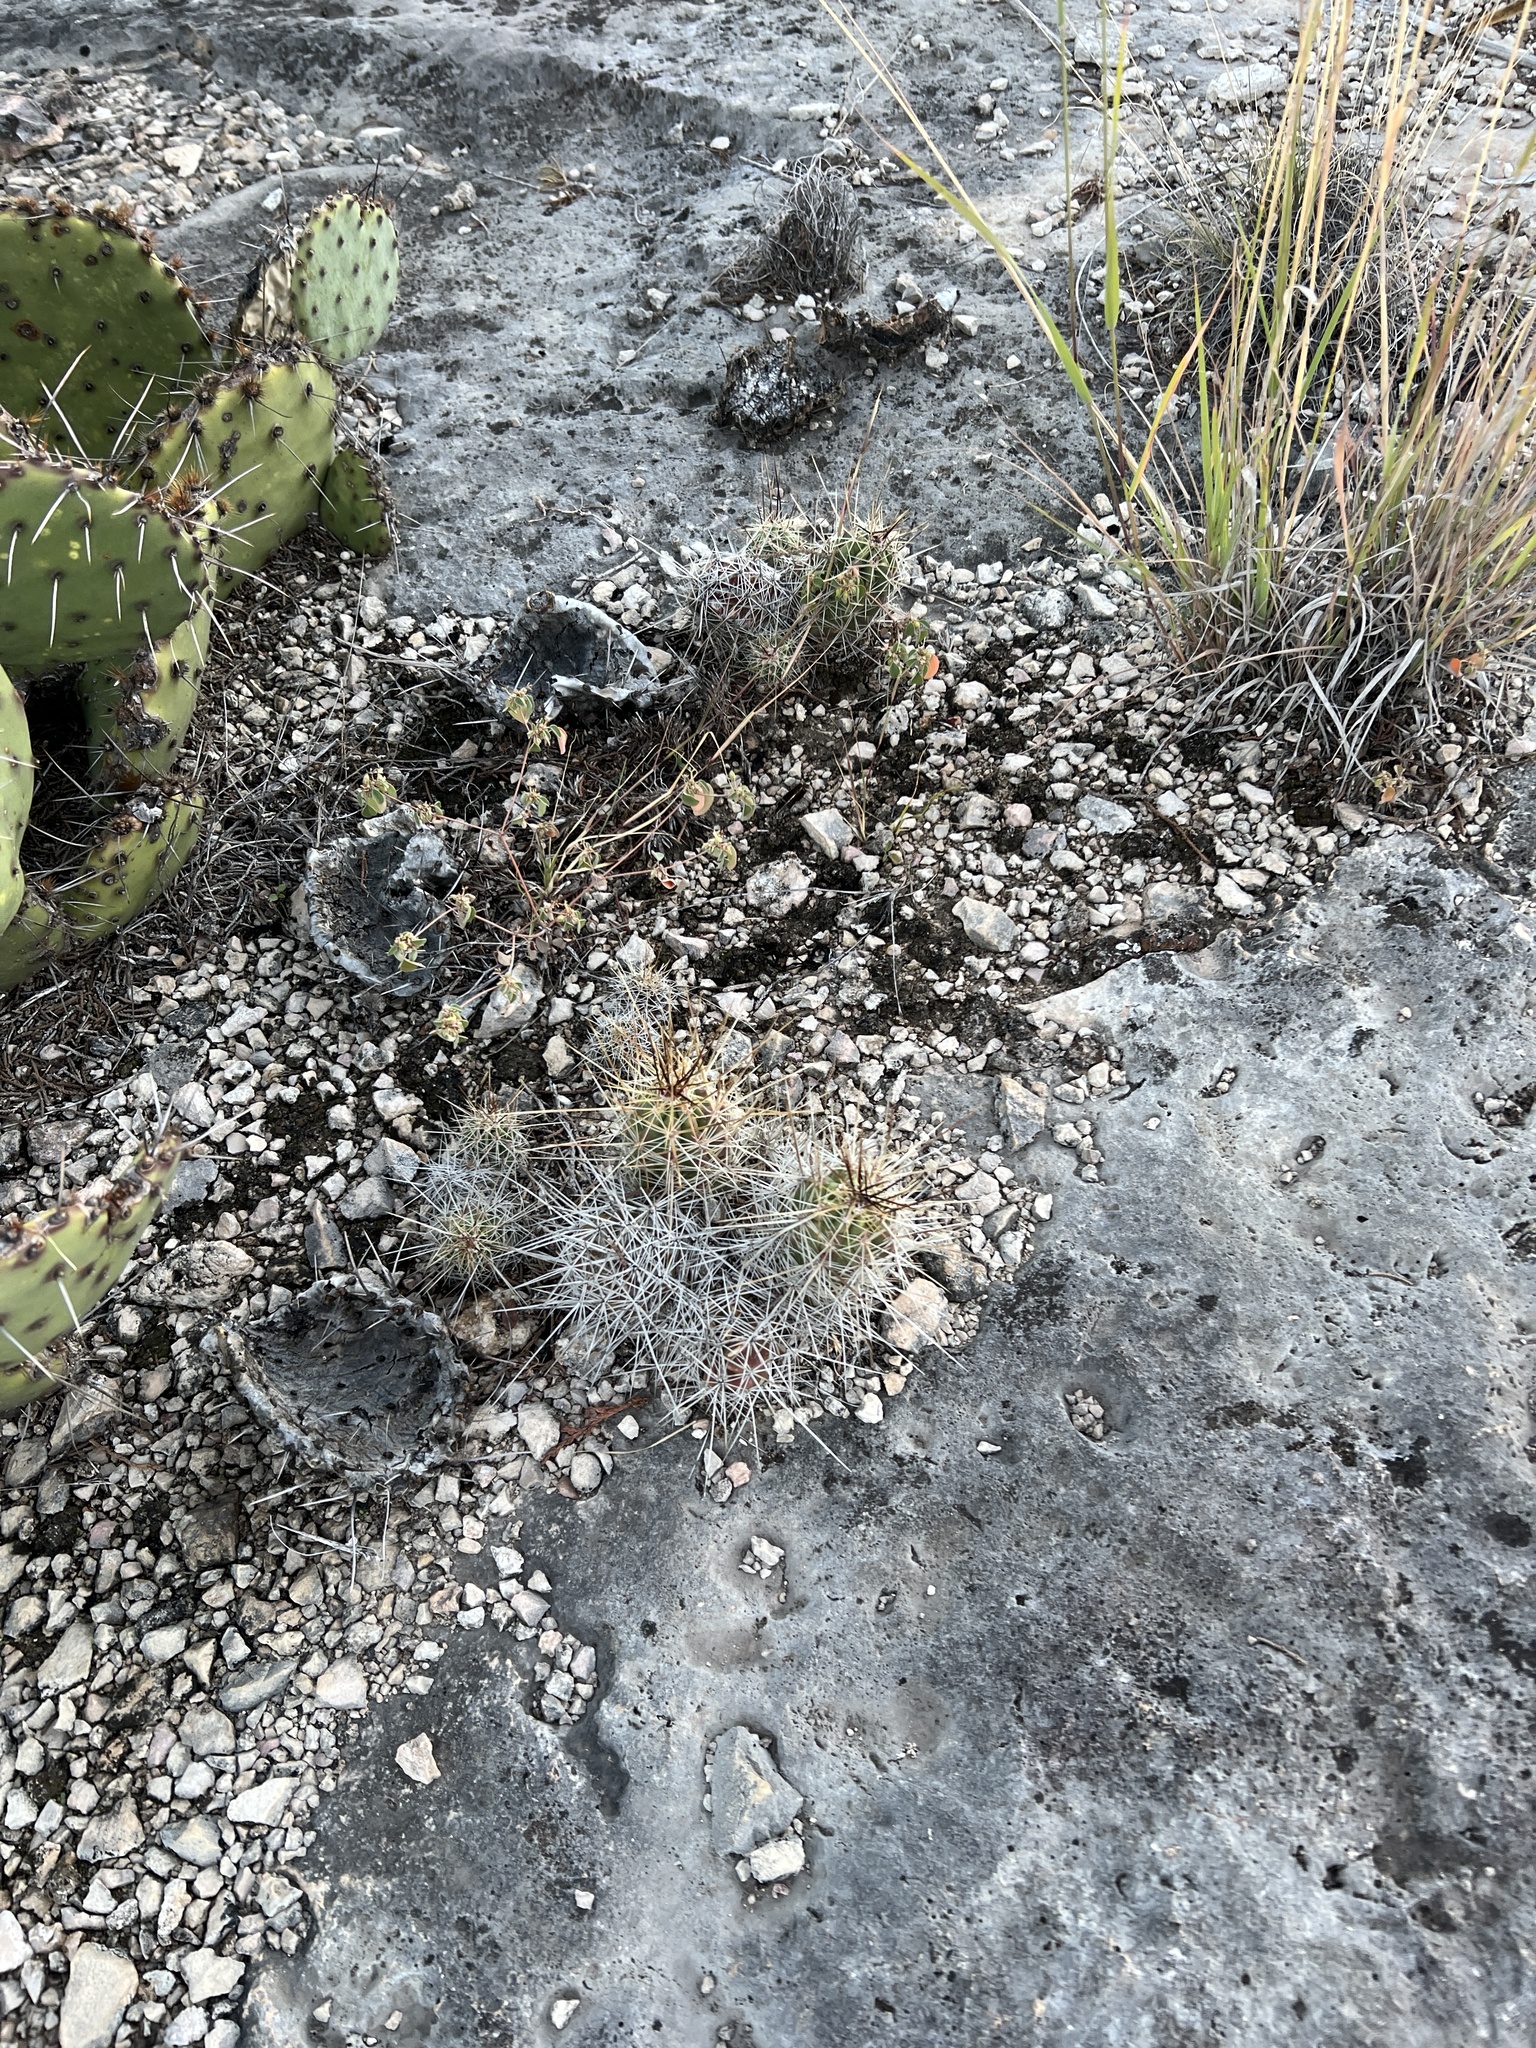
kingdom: Plantae
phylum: Tracheophyta
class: Magnoliopsida
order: Caryophyllales
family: Cactaceae
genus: Echinocereus
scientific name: Echinocereus enneacanthus
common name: Pitaya
